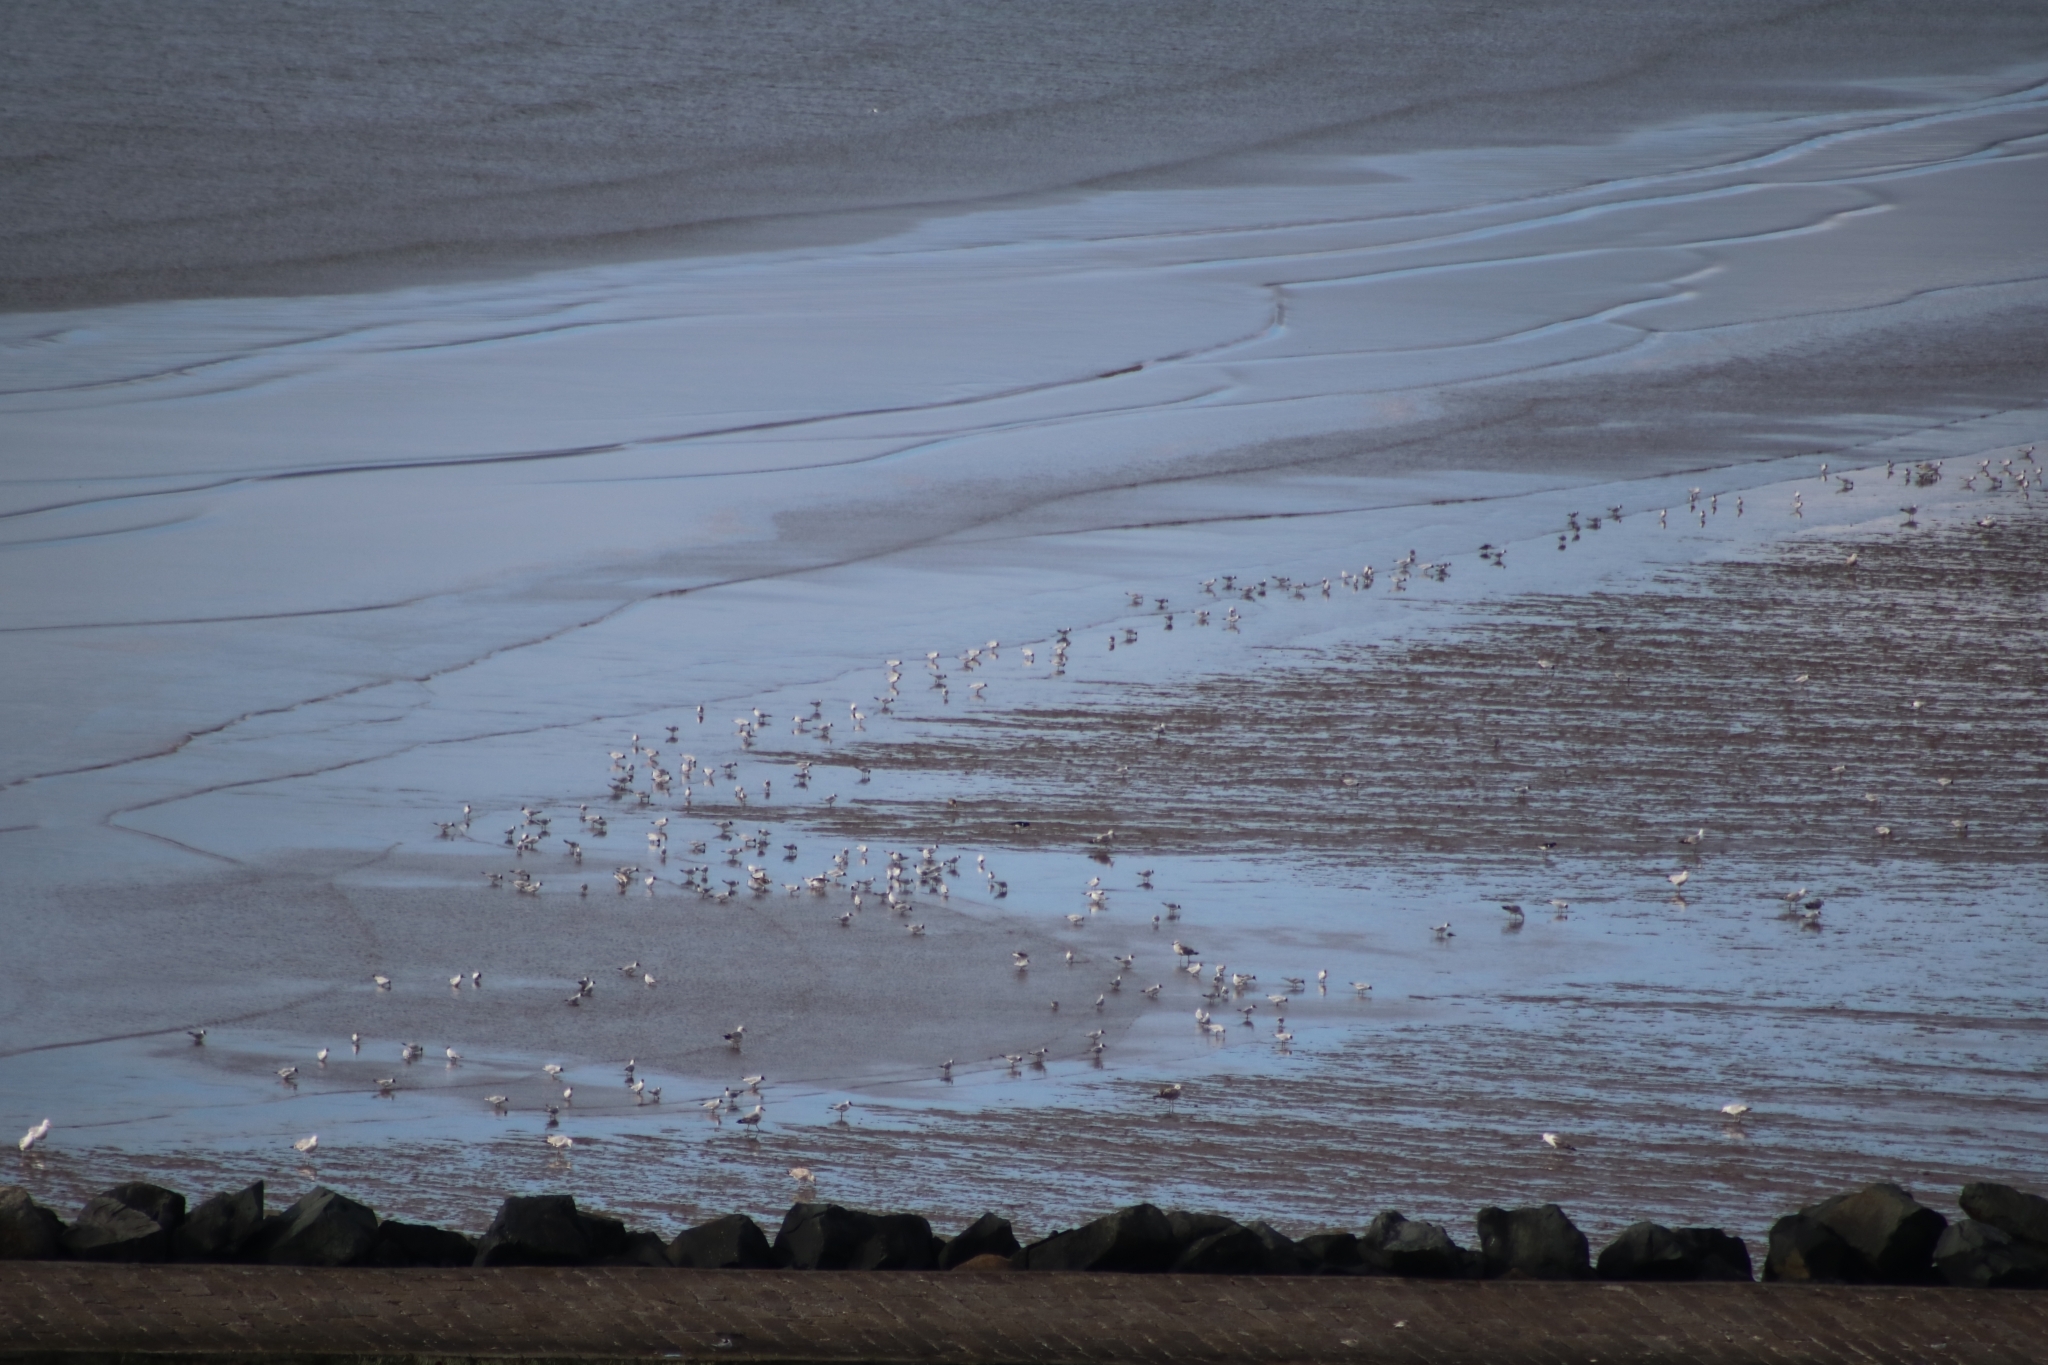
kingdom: Animalia
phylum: Chordata
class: Aves
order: Charadriiformes
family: Laridae
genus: Chroicocephalus
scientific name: Chroicocephalus ridibundus
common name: Black-headed gull
